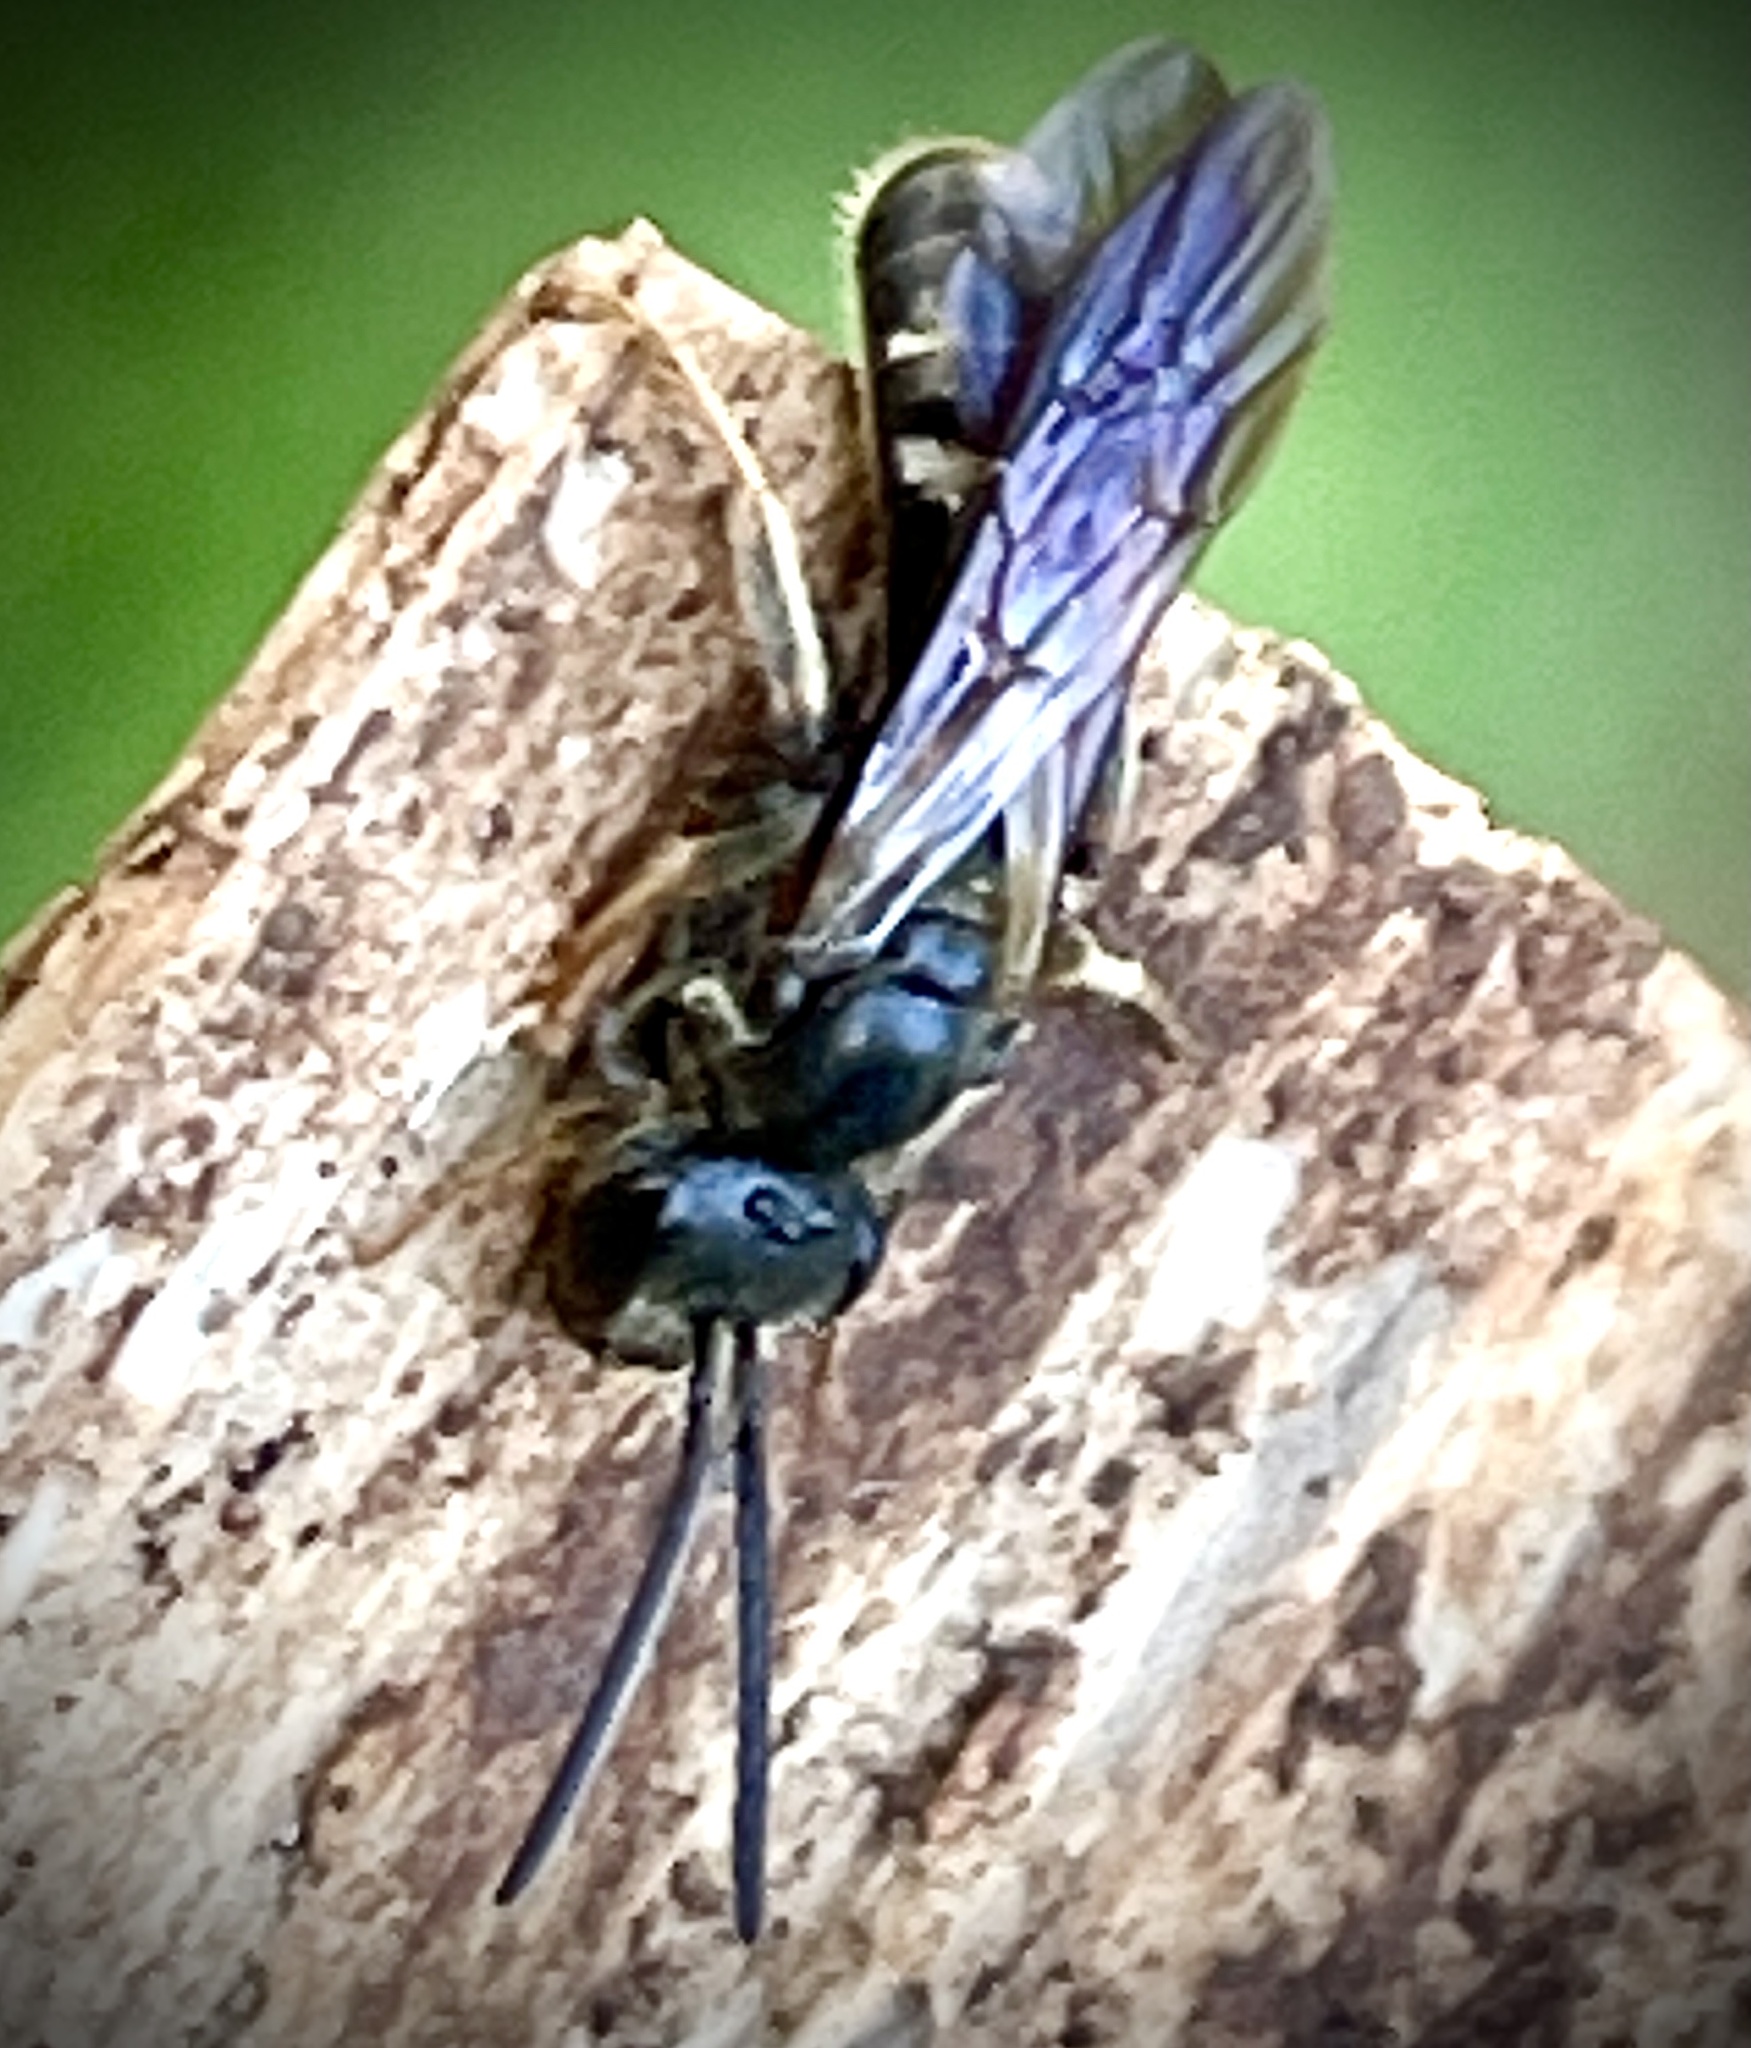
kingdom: Animalia
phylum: Arthropoda
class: Insecta
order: Hymenoptera
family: Halictidae
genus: Lasioglossum
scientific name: Lasioglossum fuscipenne
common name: Brown-winged sweat bee
